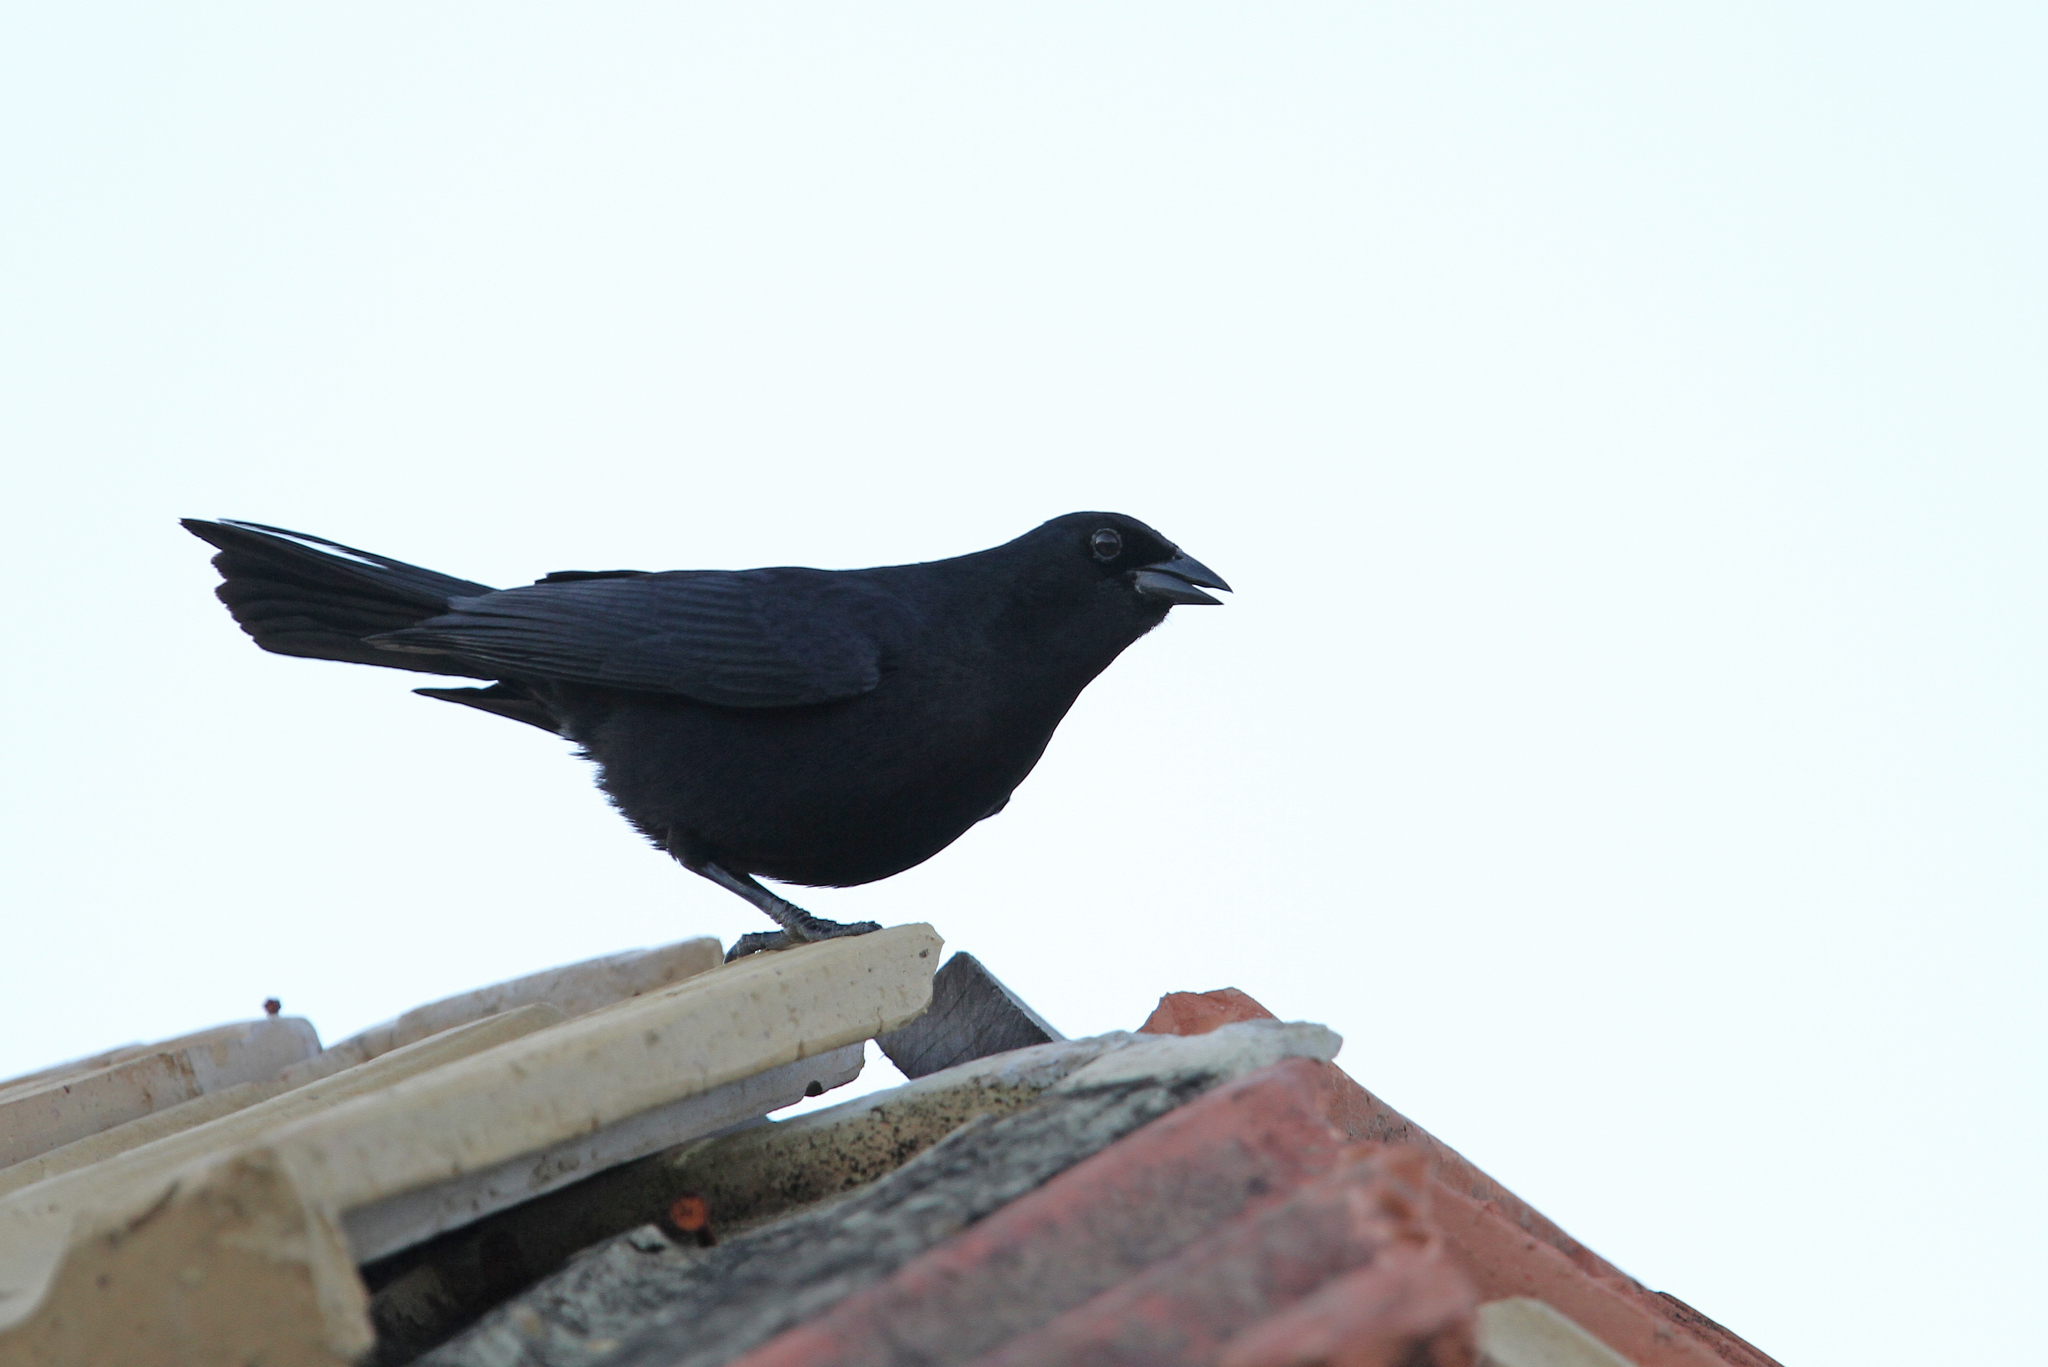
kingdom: Animalia
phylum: Chordata
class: Aves
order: Passeriformes
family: Icteridae
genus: Dives
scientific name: Dives atroviolaceus
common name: Cuban blackbird
